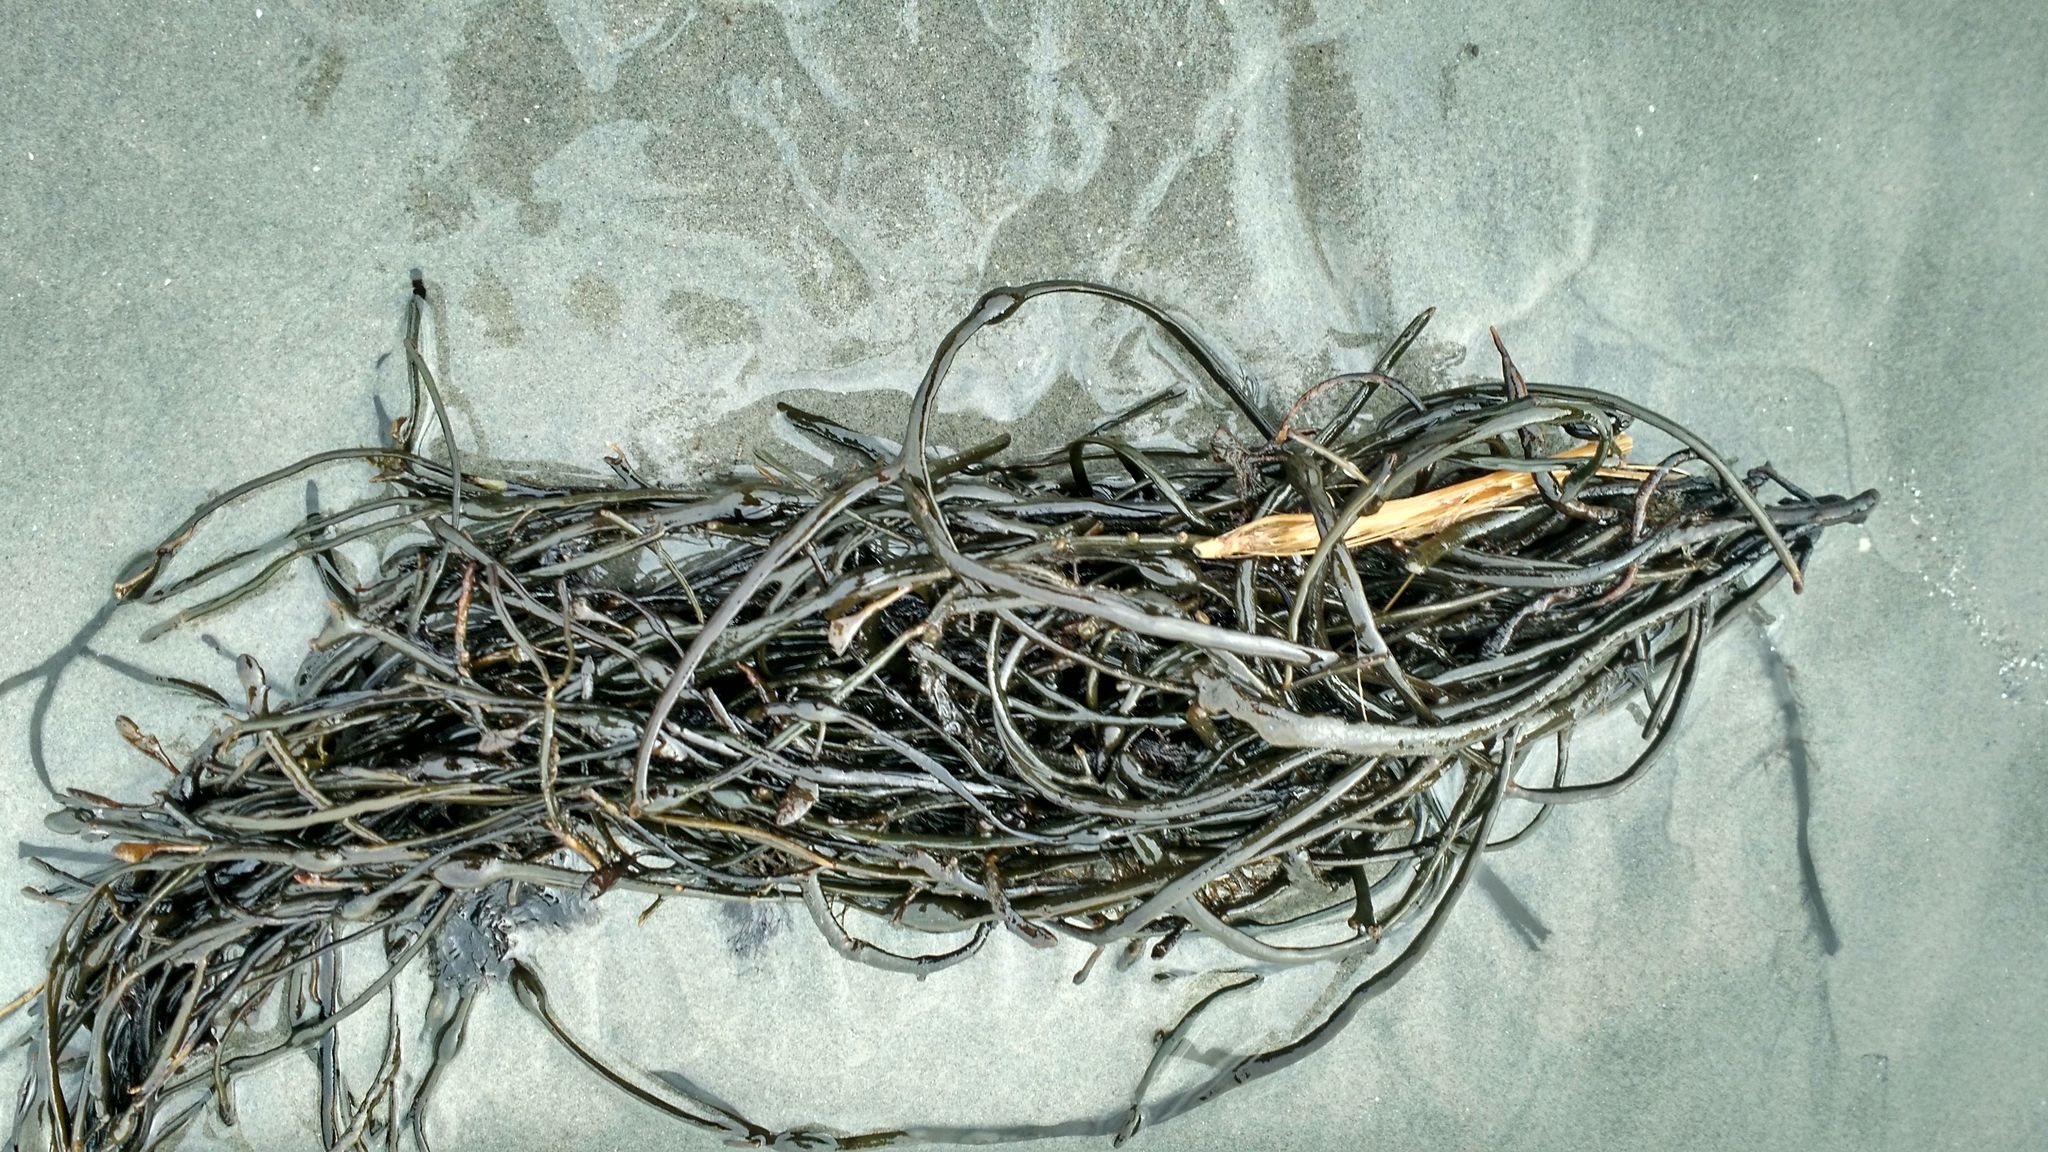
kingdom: Chromista
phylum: Ochrophyta
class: Phaeophyceae
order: Fucales
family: Fucaceae
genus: Ascophyllum
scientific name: Ascophyllum nodosum
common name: Knotted wrack
